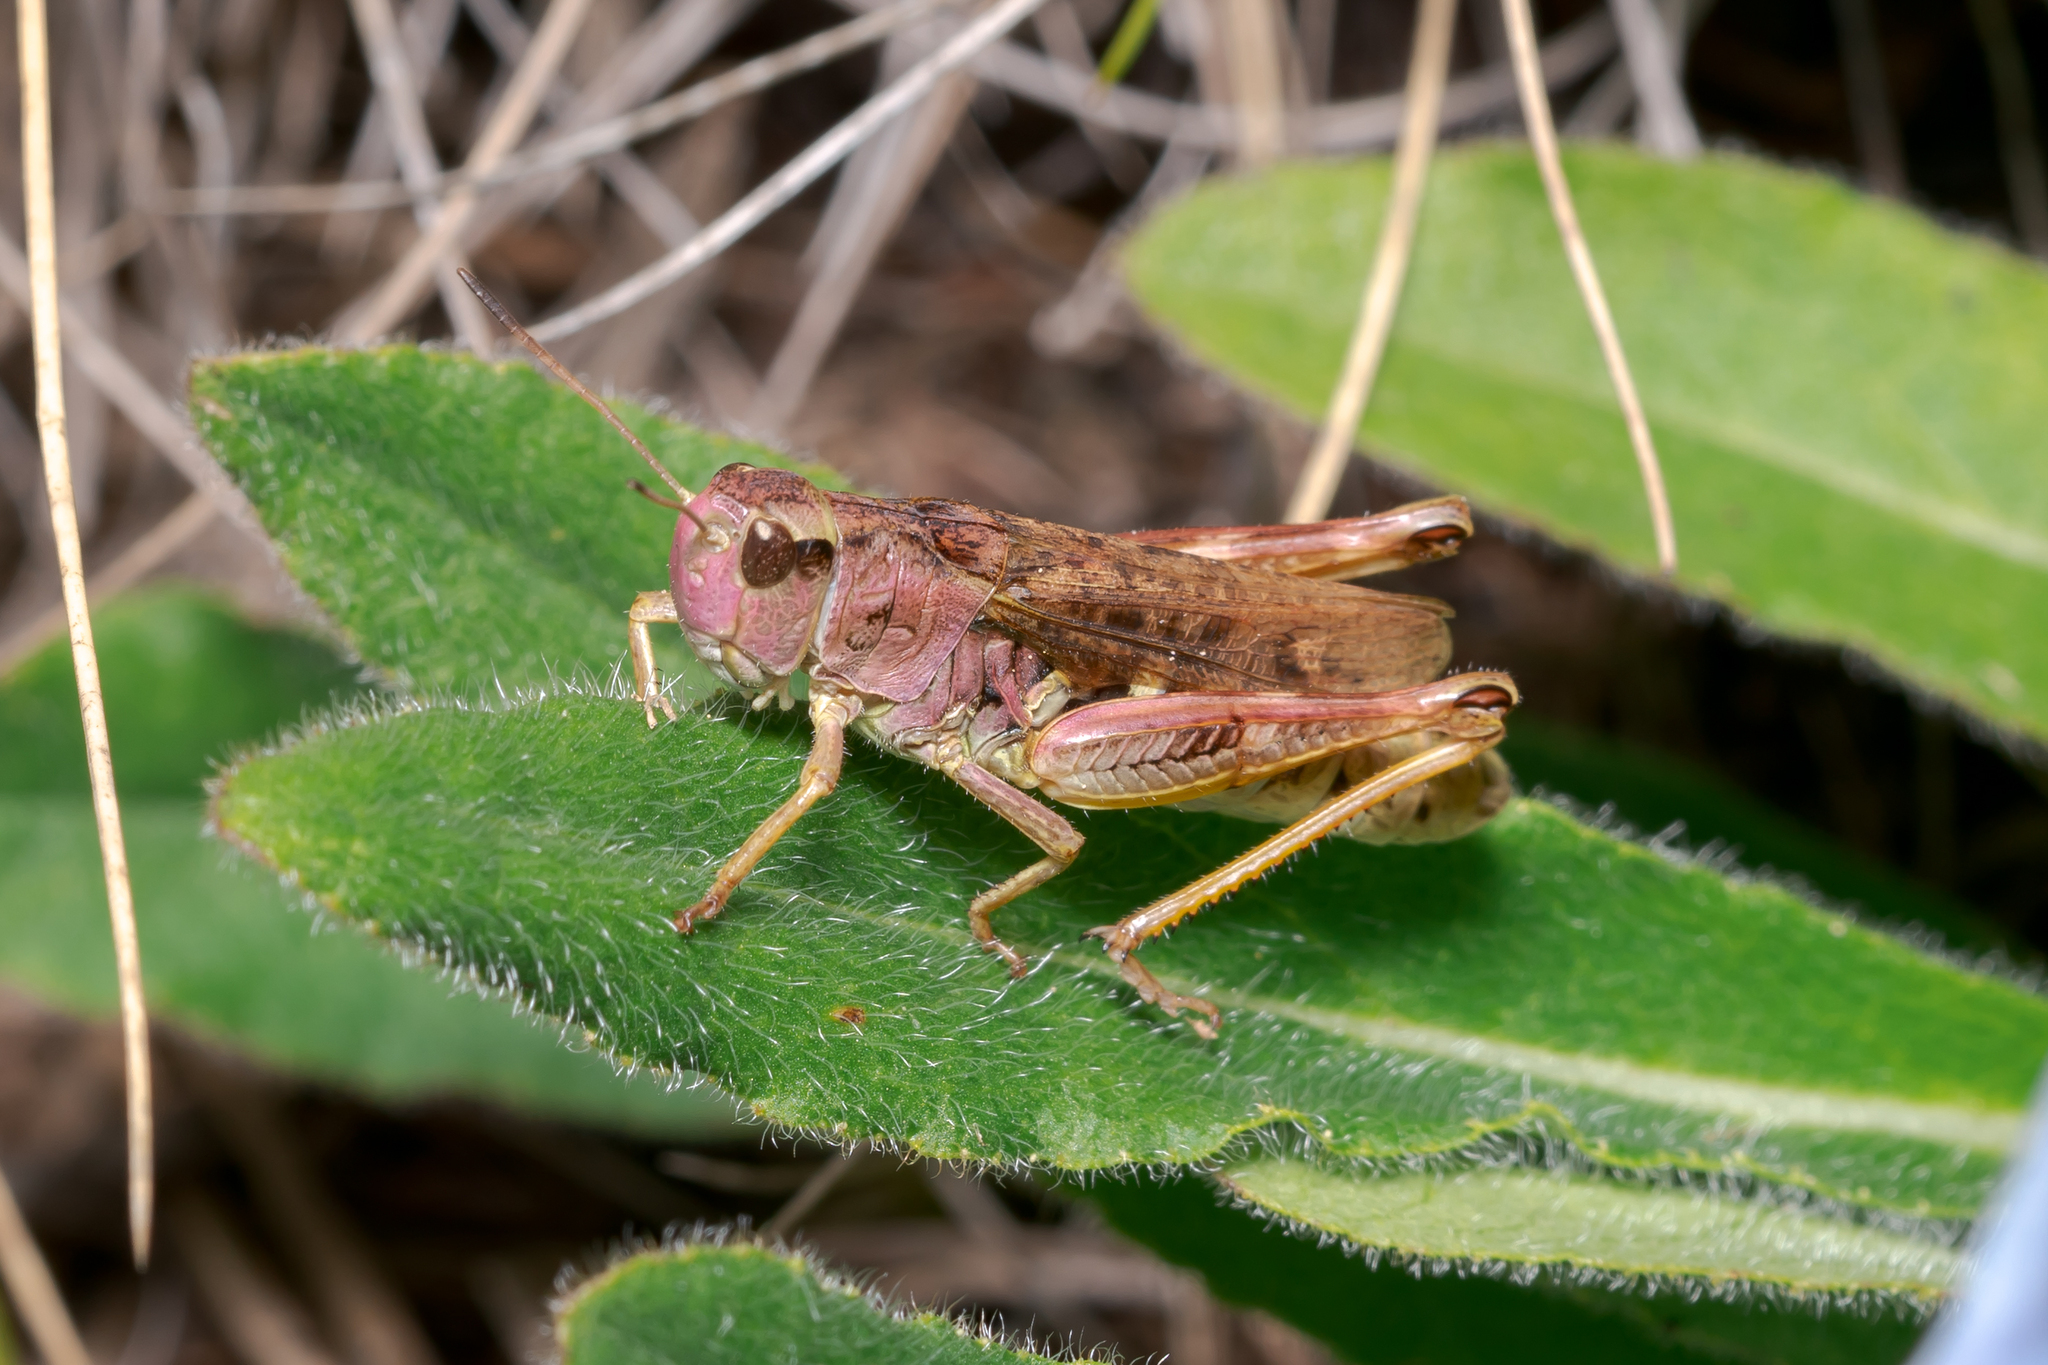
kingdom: Animalia
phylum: Arthropoda
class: Insecta
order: Orthoptera
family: Acrididae
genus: Gomphocerus
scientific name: Gomphocerus sibiricus
